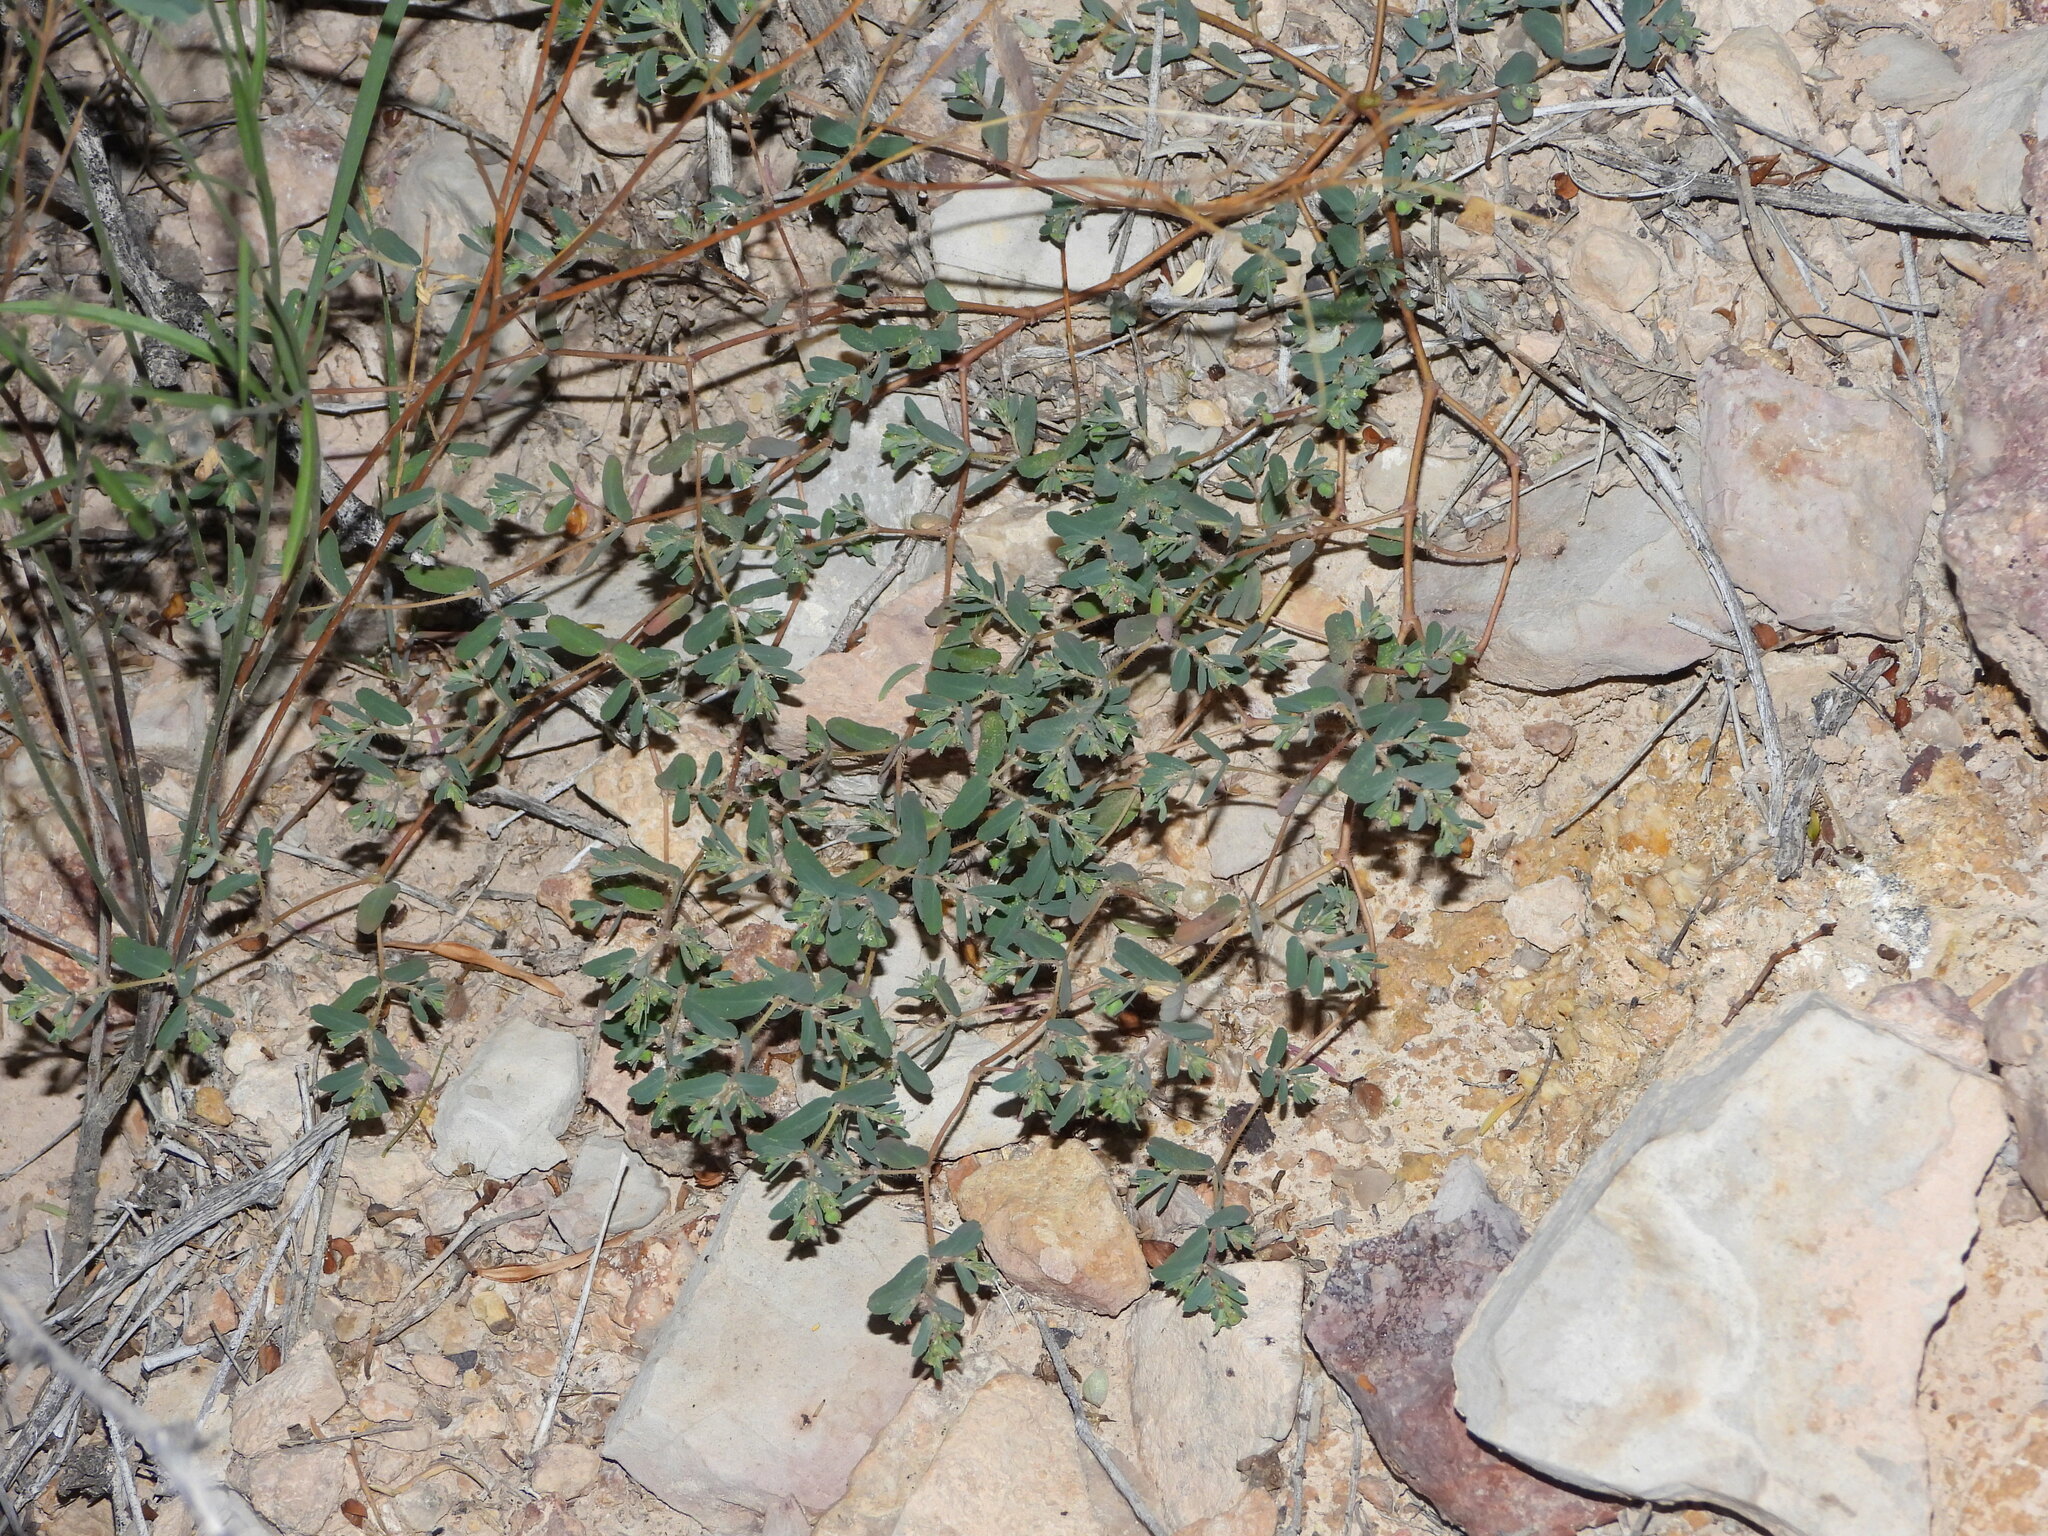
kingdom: Plantae
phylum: Tracheophyta
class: Magnoliopsida
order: Malpighiales
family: Euphorbiaceae
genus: Euphorbia
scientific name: Euphorbia serrula
